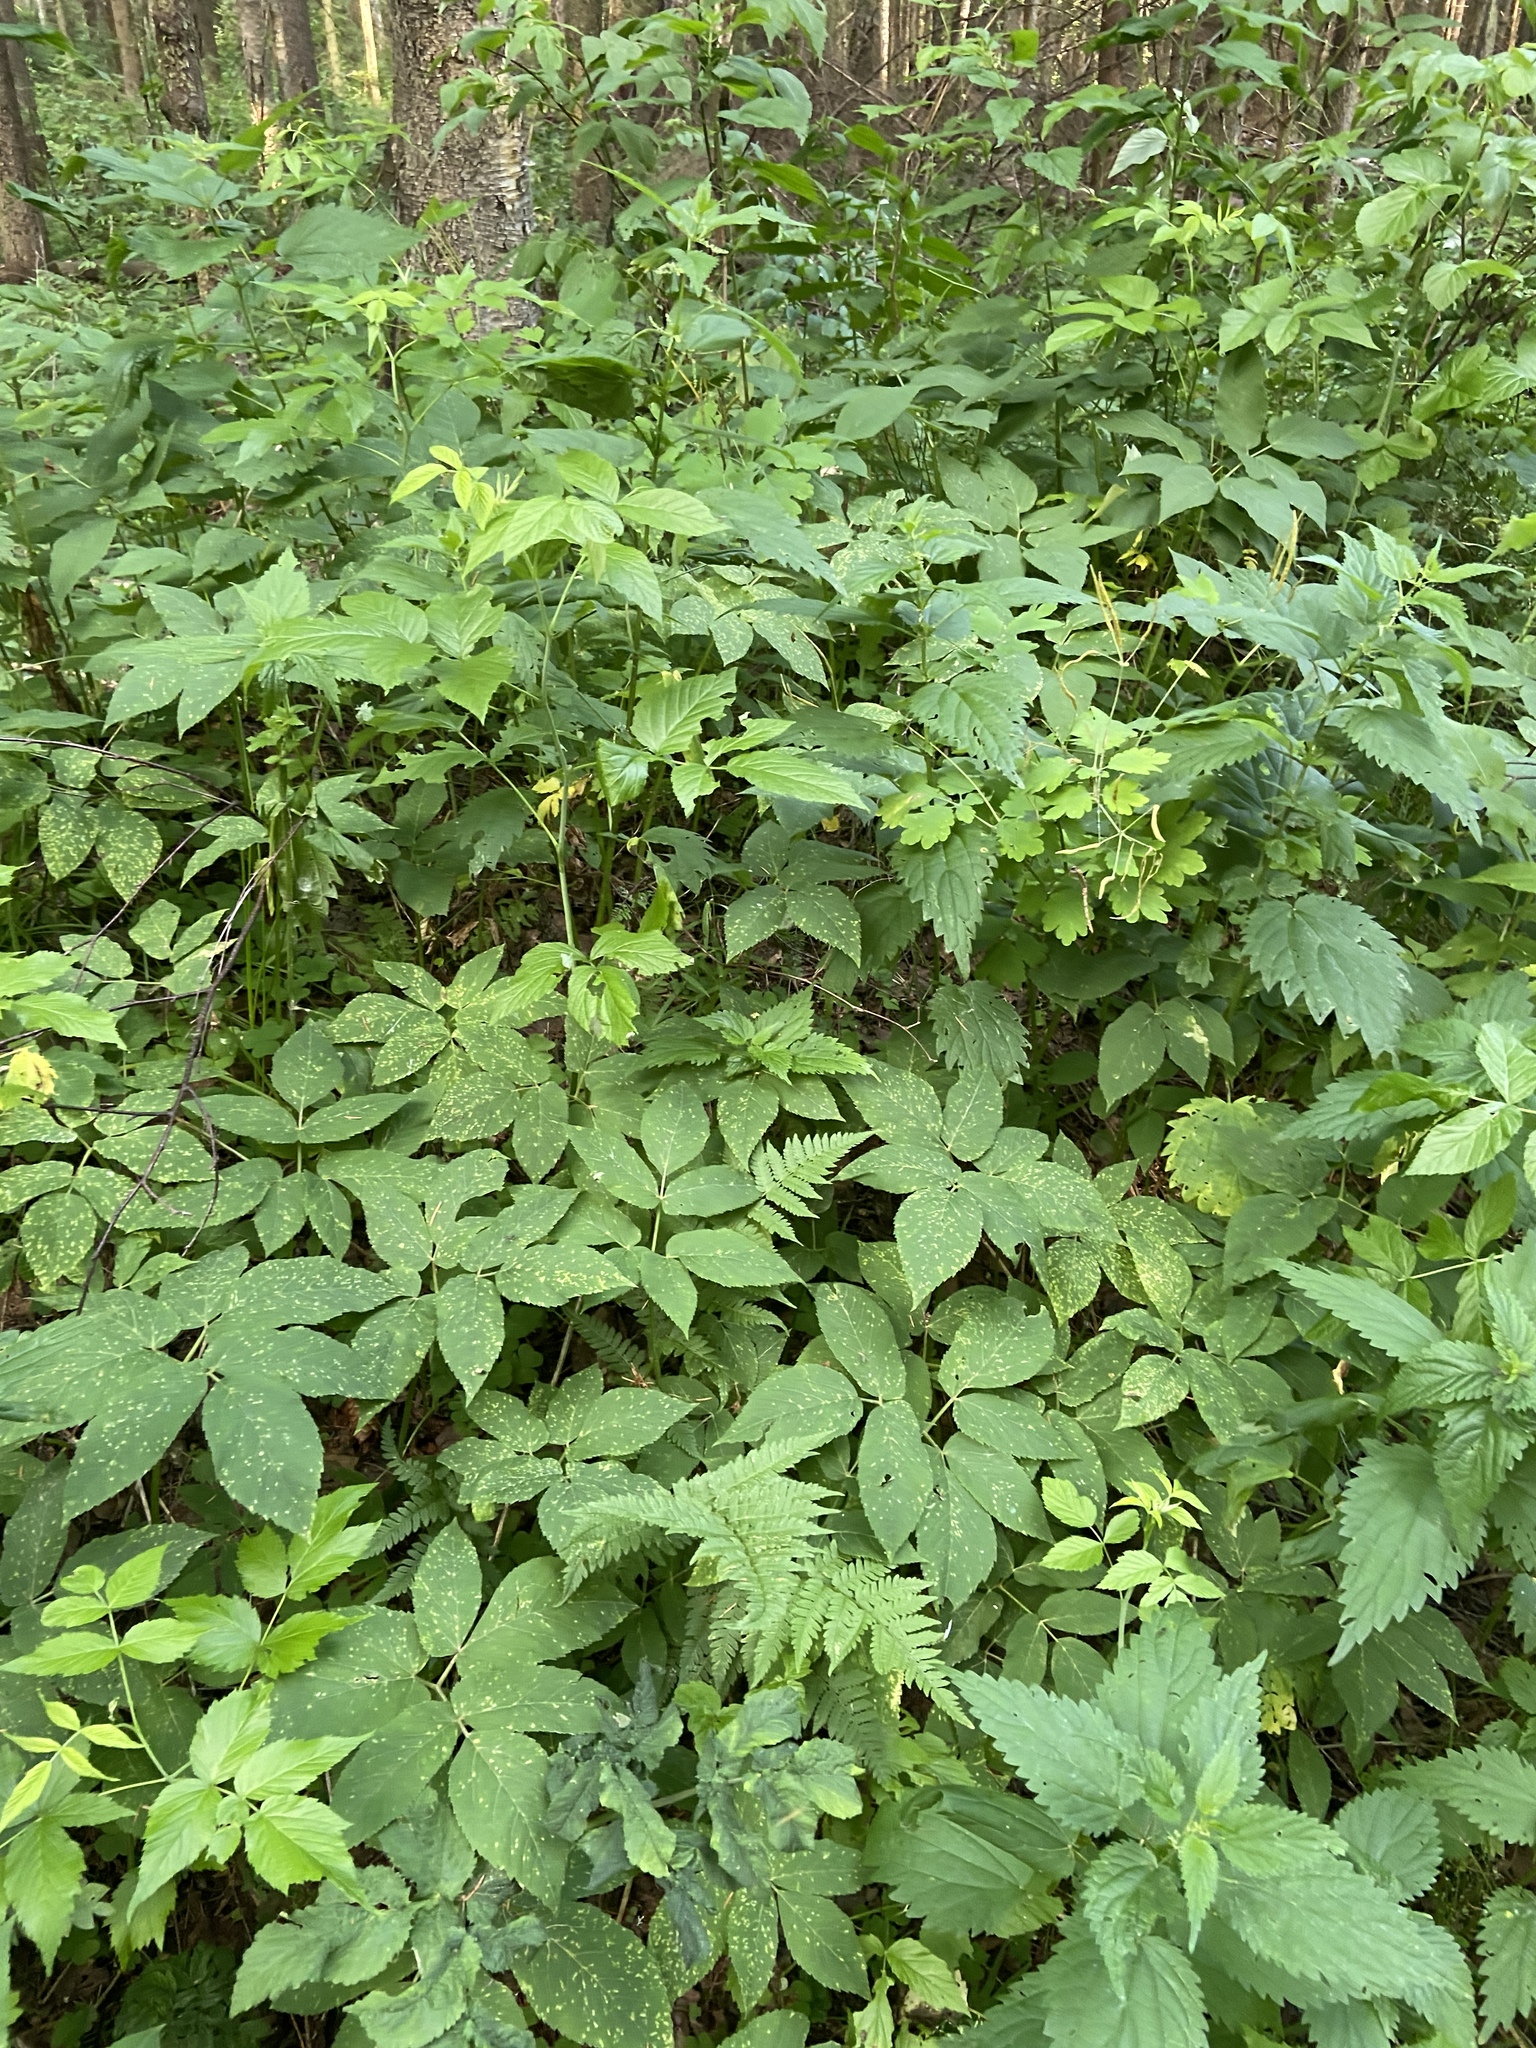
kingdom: Plantae
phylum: Tracheophyta
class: Magnoliopsida
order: Apiales
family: Apiaceae
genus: Aegopodium
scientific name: Aegopodium podagraria
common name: Ground-elder
